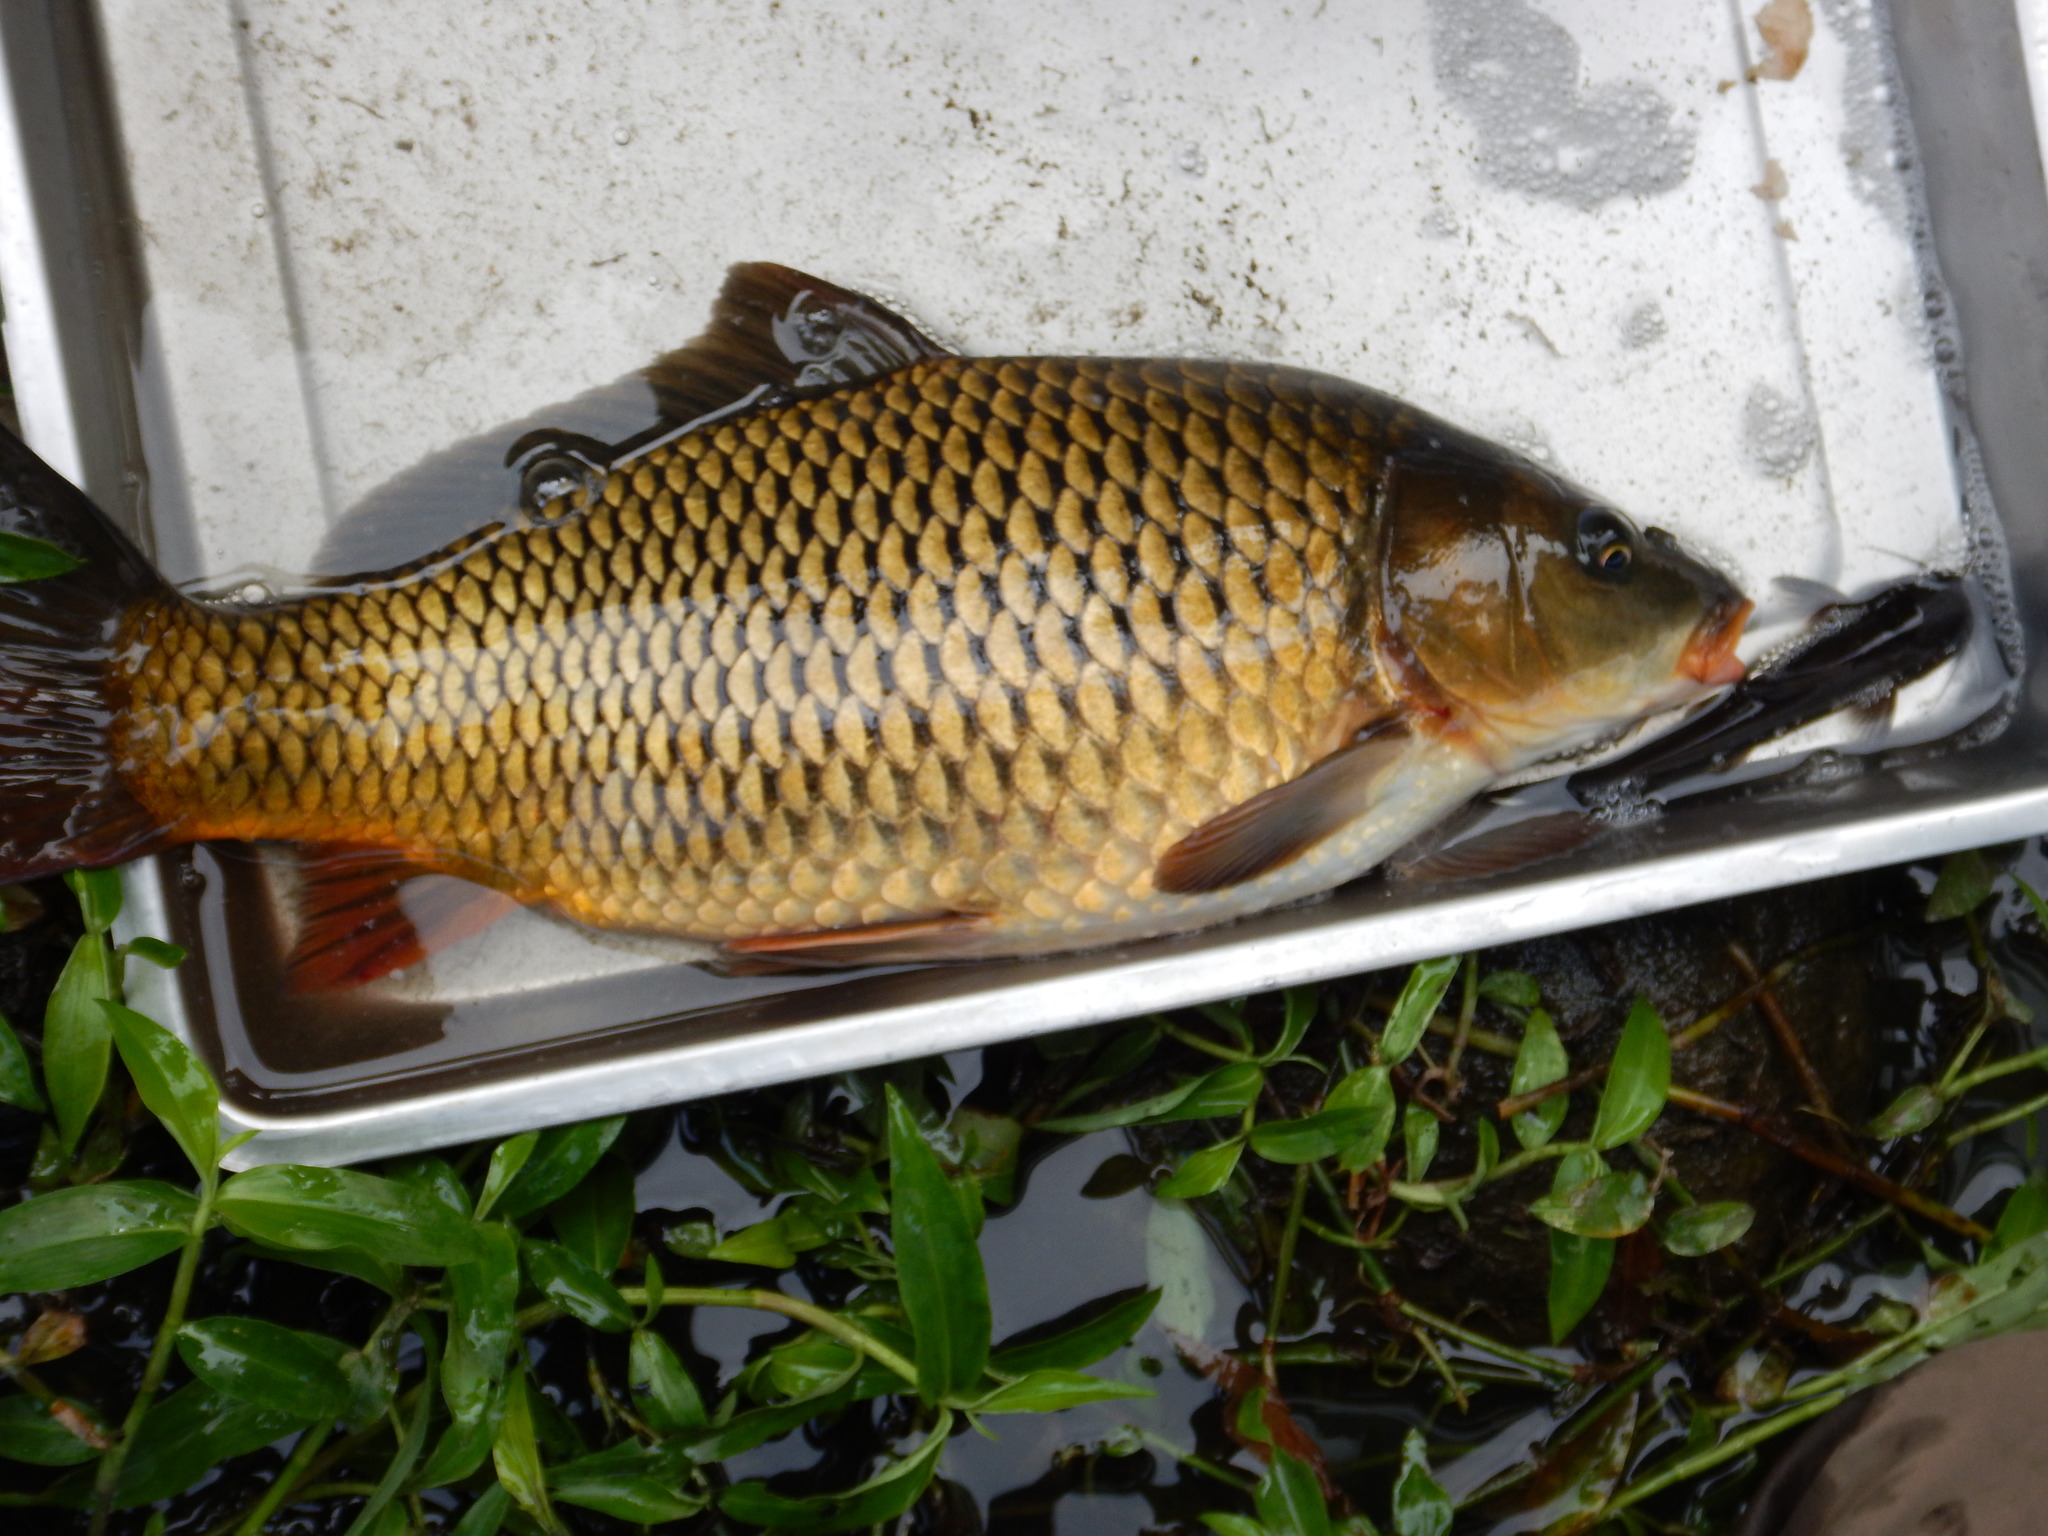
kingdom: Animalia
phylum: Chordata
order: Cypriniformes
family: Cyprinidae
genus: Cyprinus
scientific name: Cyprinus carpio
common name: Common carp
